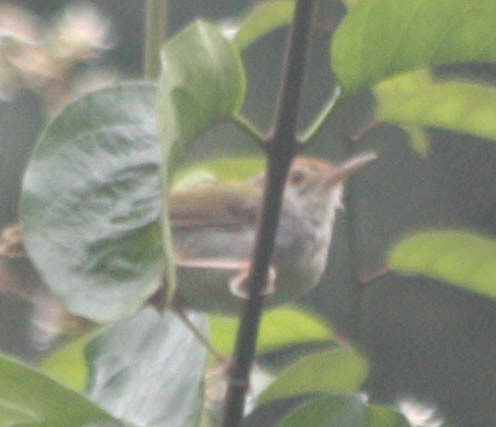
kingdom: Animalia
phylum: Chordata
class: Aves
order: Passeriformes
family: Cisticolidae
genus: Orthotomus
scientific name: Orthotomus sutorius
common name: Common tailorbird
